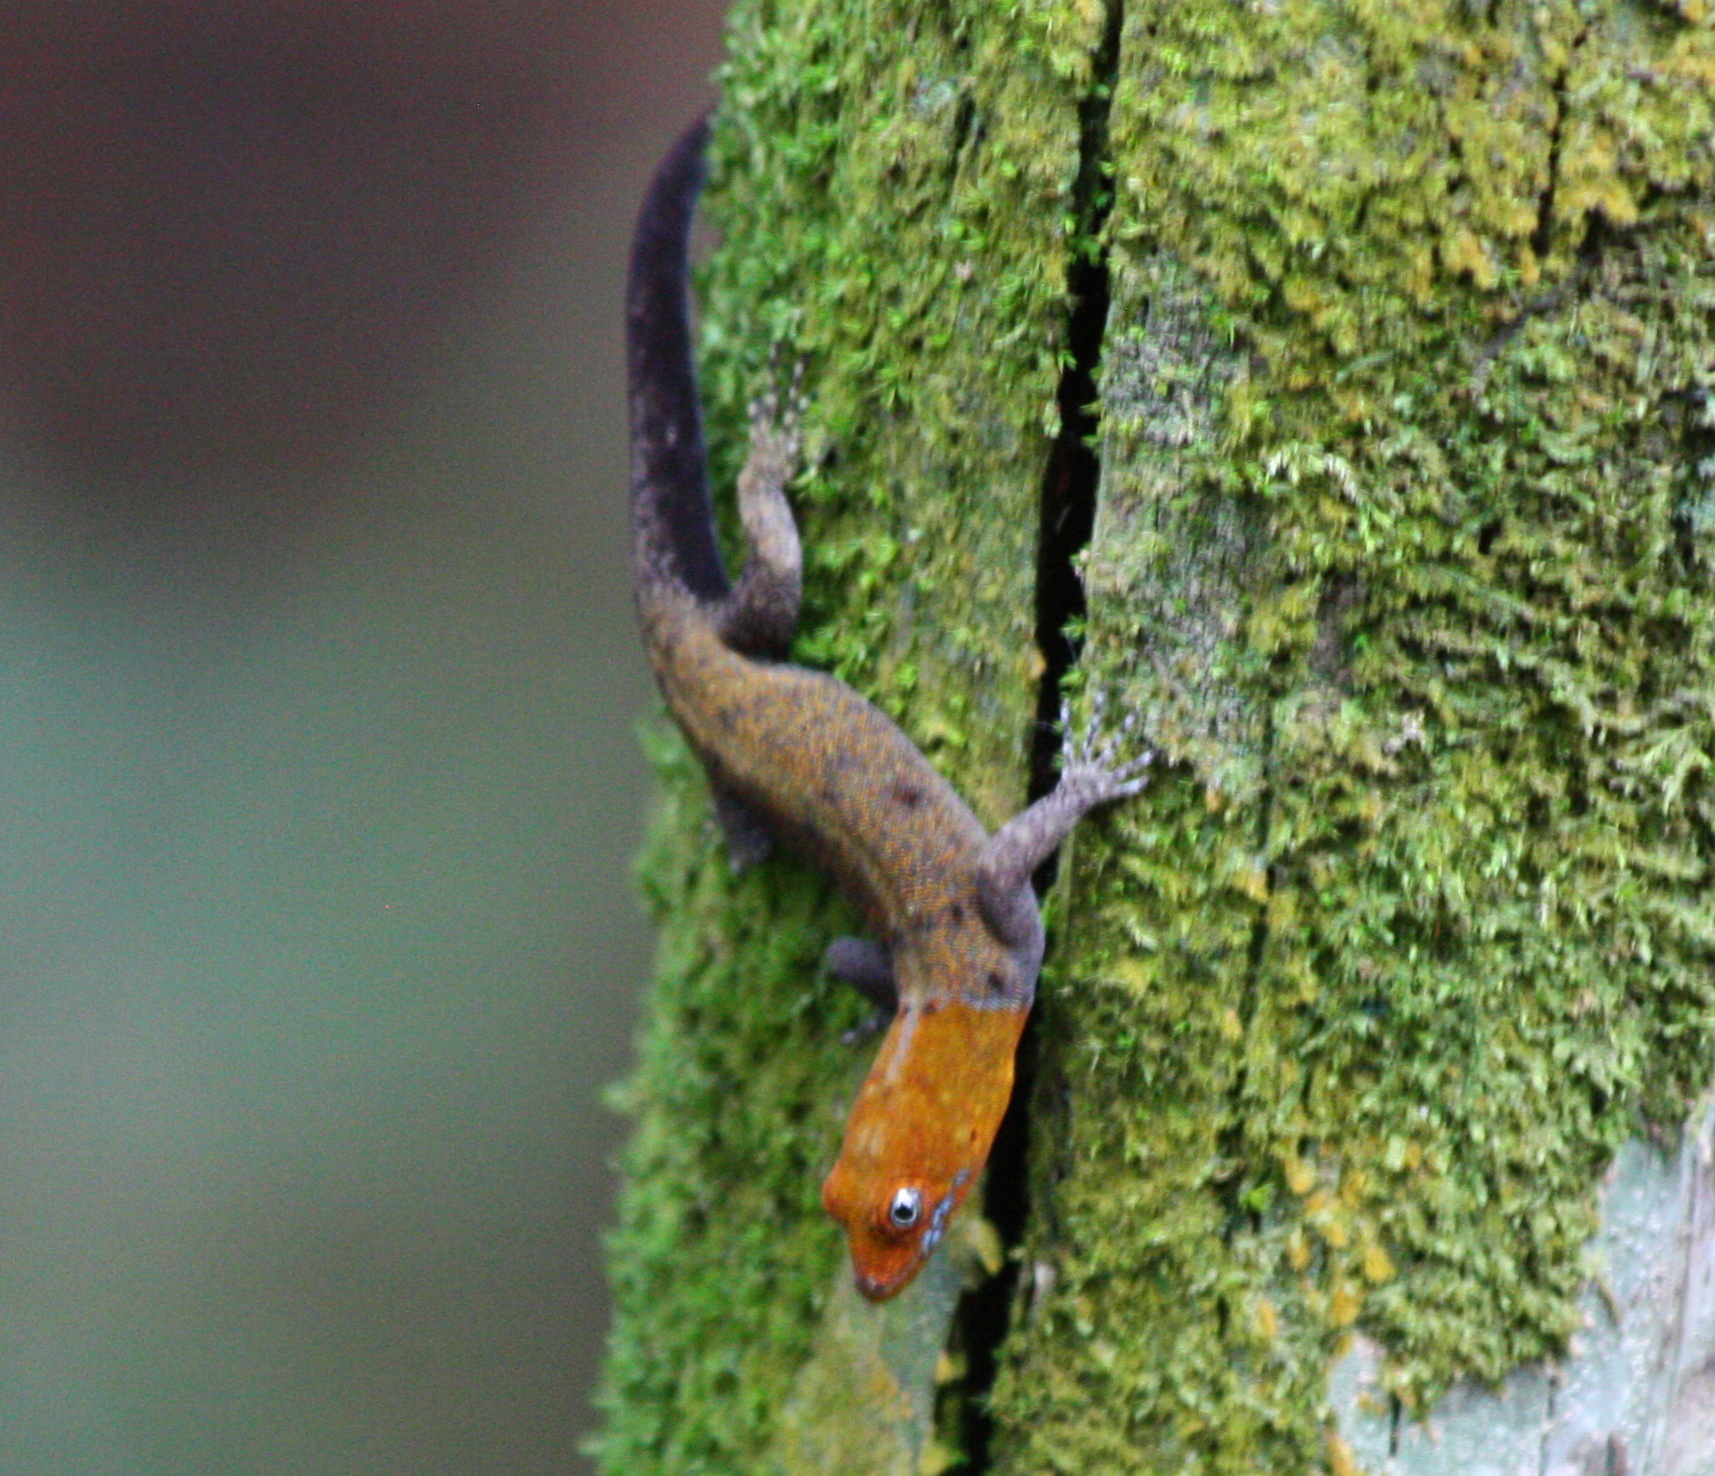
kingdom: Animalia
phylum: Chordata
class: Squamata
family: Sphaerodactylidae
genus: Gonatodes
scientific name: Gonatodes albogularis
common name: Yellow-headed gecko
